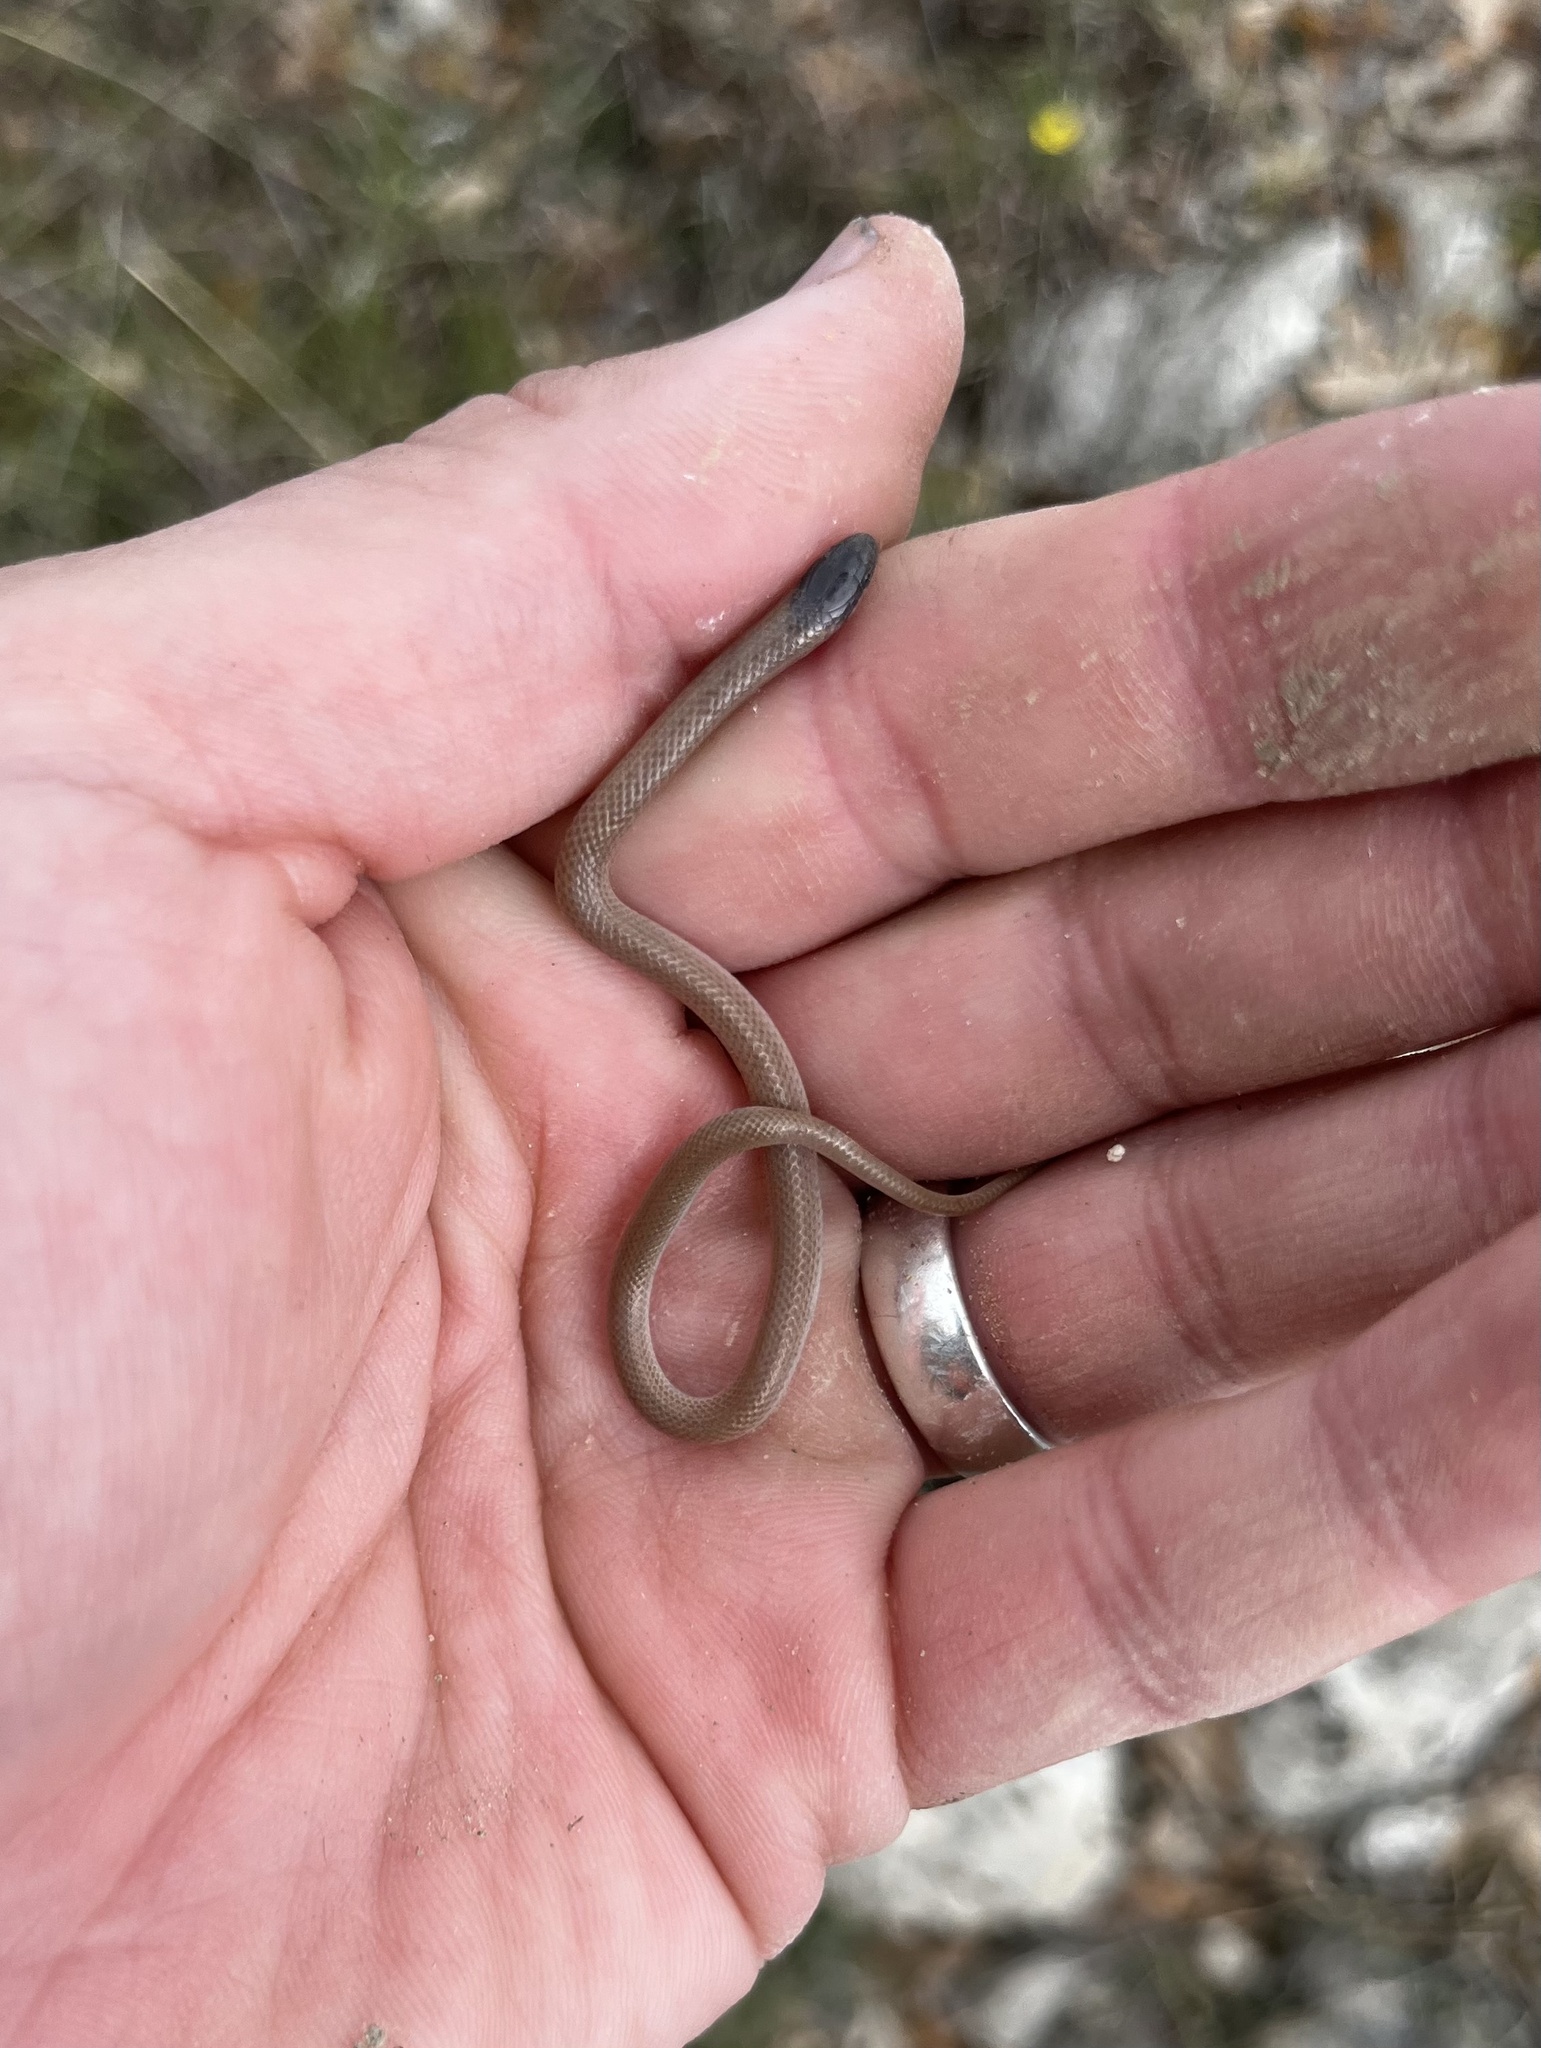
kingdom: Animalia
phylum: Chordata
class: Squamata
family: Colubridae
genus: Tantilla
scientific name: Tantilla nigriceps
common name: Plains blackhead snake
